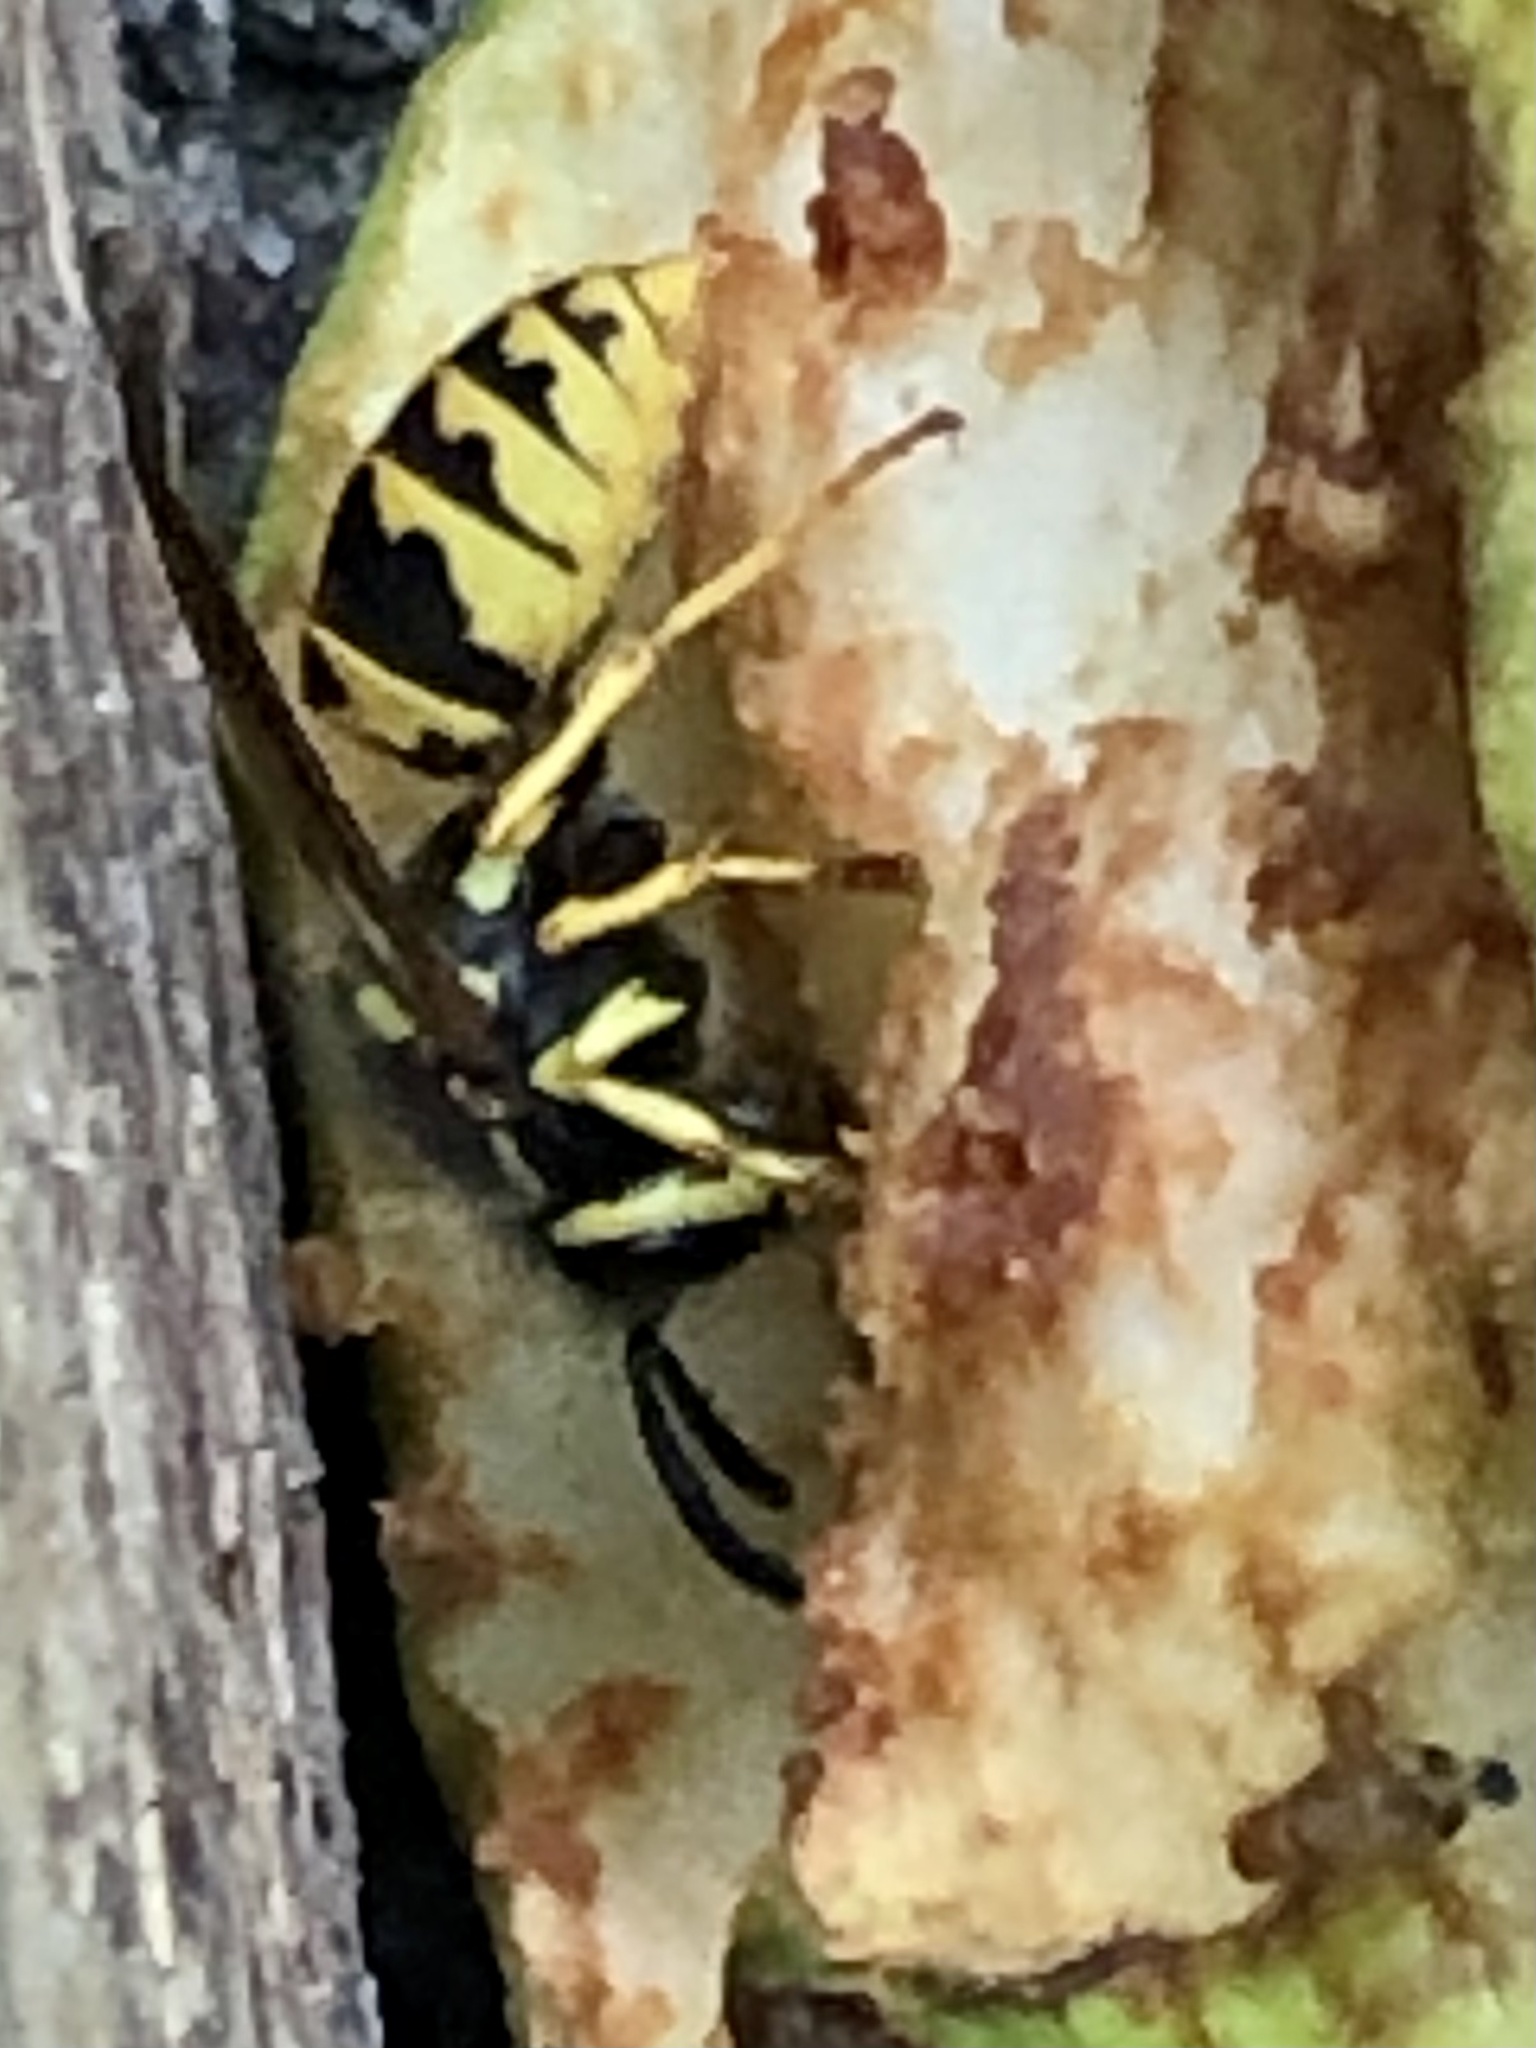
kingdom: Animalia
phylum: Arthropoda
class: Insecta
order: Hymenoptera
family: Vespidae
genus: Vespula
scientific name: Vespula germanica
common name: German wasp
